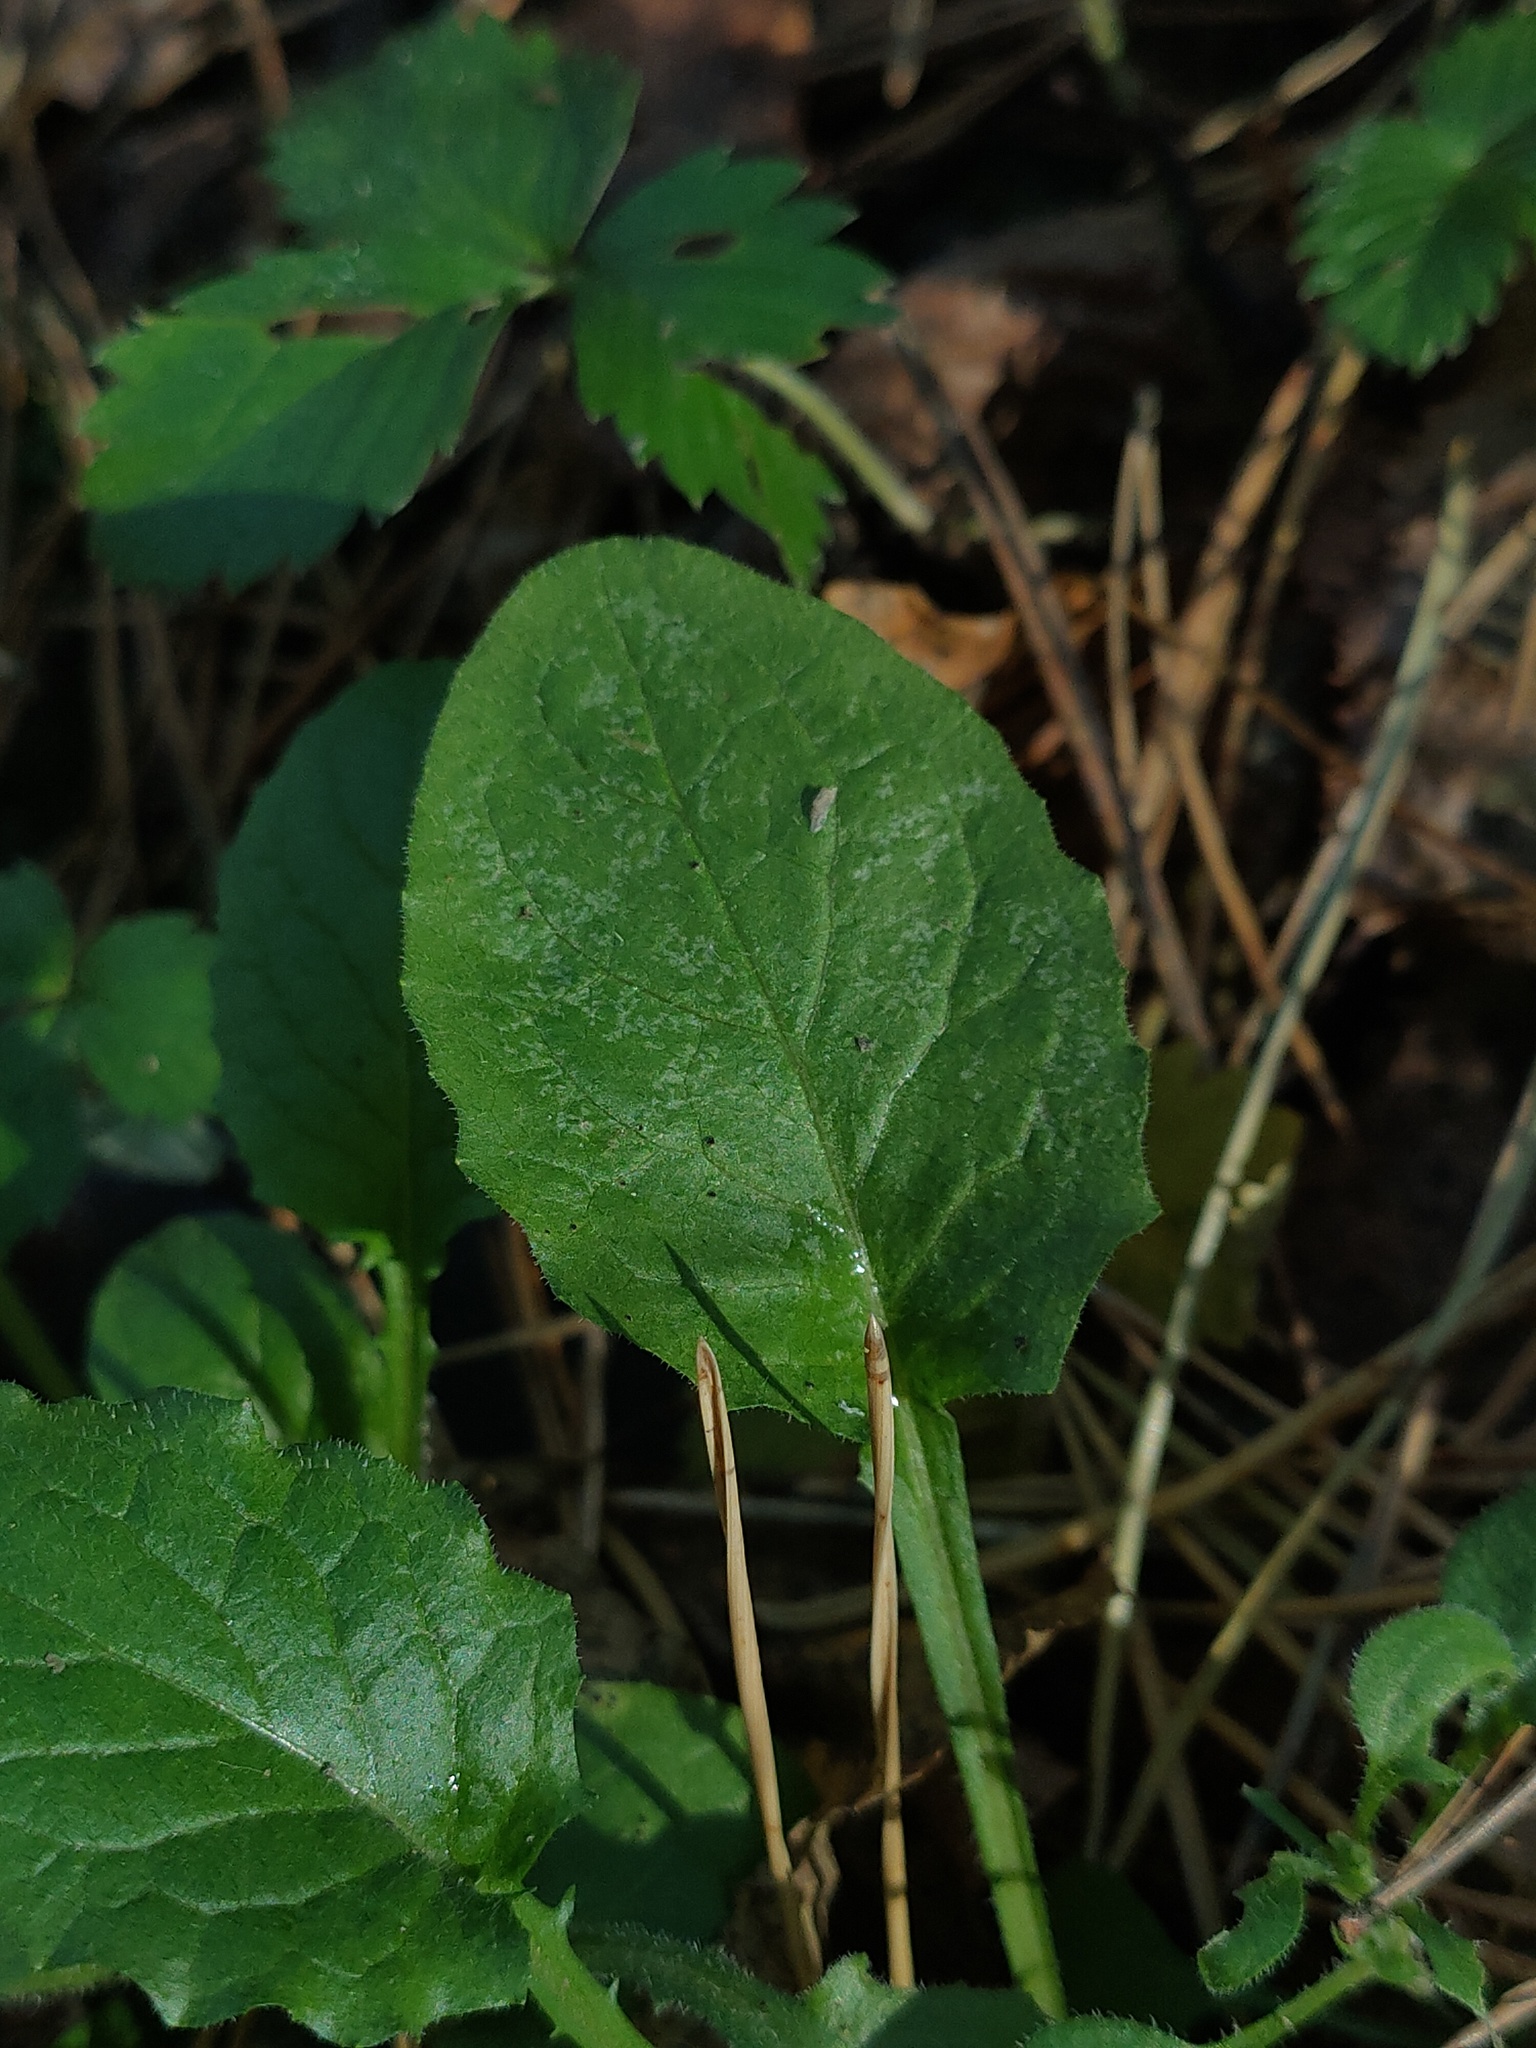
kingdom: Plantae
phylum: Tracheophyta
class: Magnoliopsida
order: Asterales
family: Asteraceae
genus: Lapsana
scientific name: Lapsana communis
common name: Nipplewort
